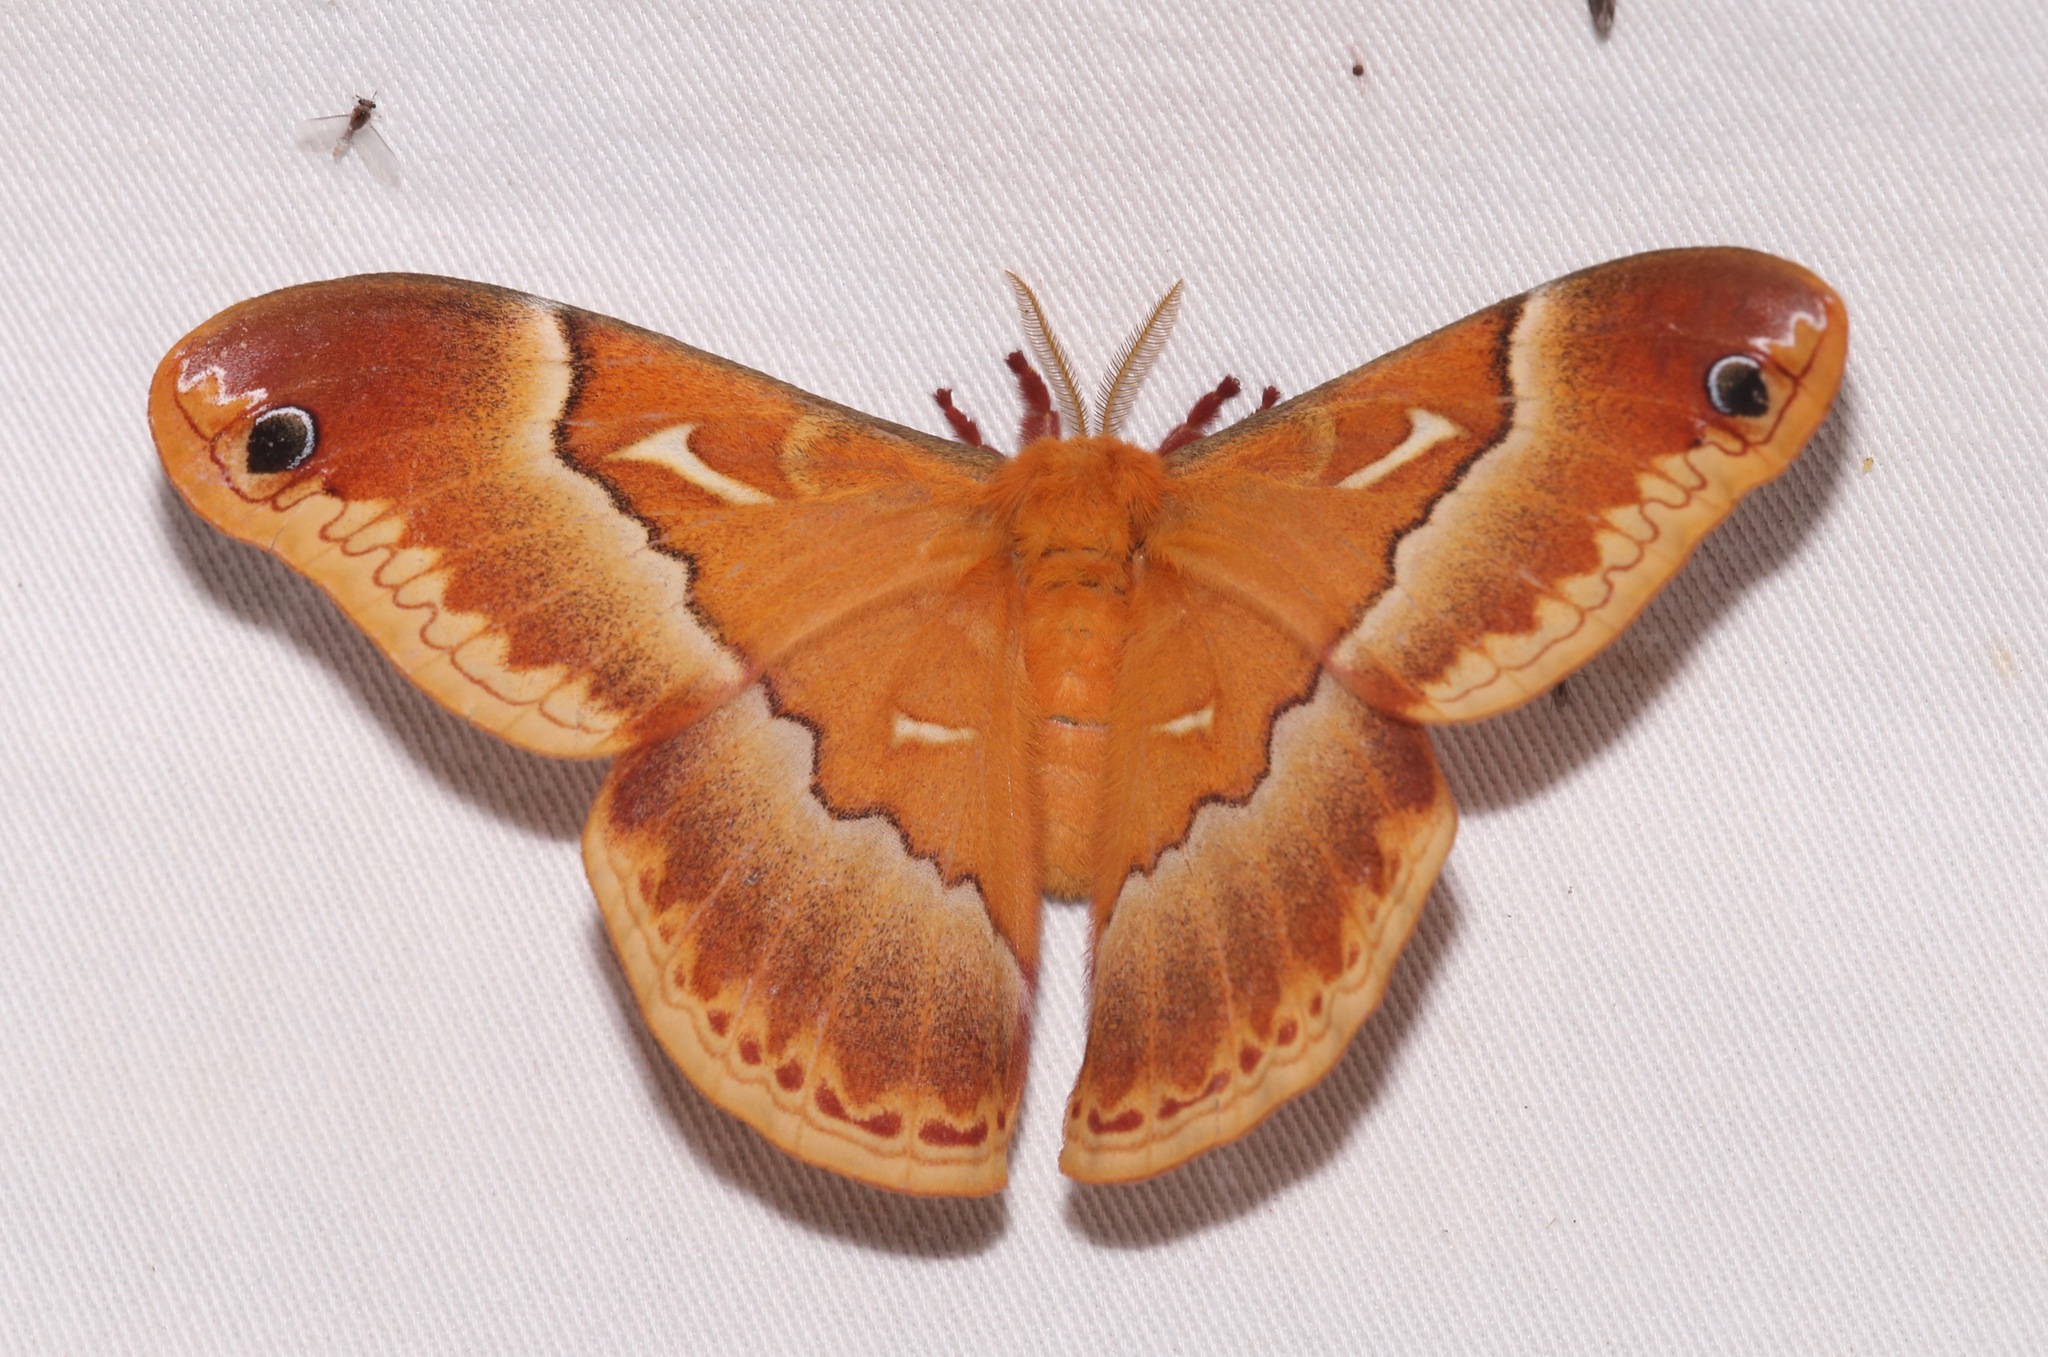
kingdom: Animalia
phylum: Arthropoda
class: Insecta
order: Lepidoptera
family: Saturniidae
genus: Callosamia
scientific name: Callosamia securifera
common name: Sweetbay silkmoth
